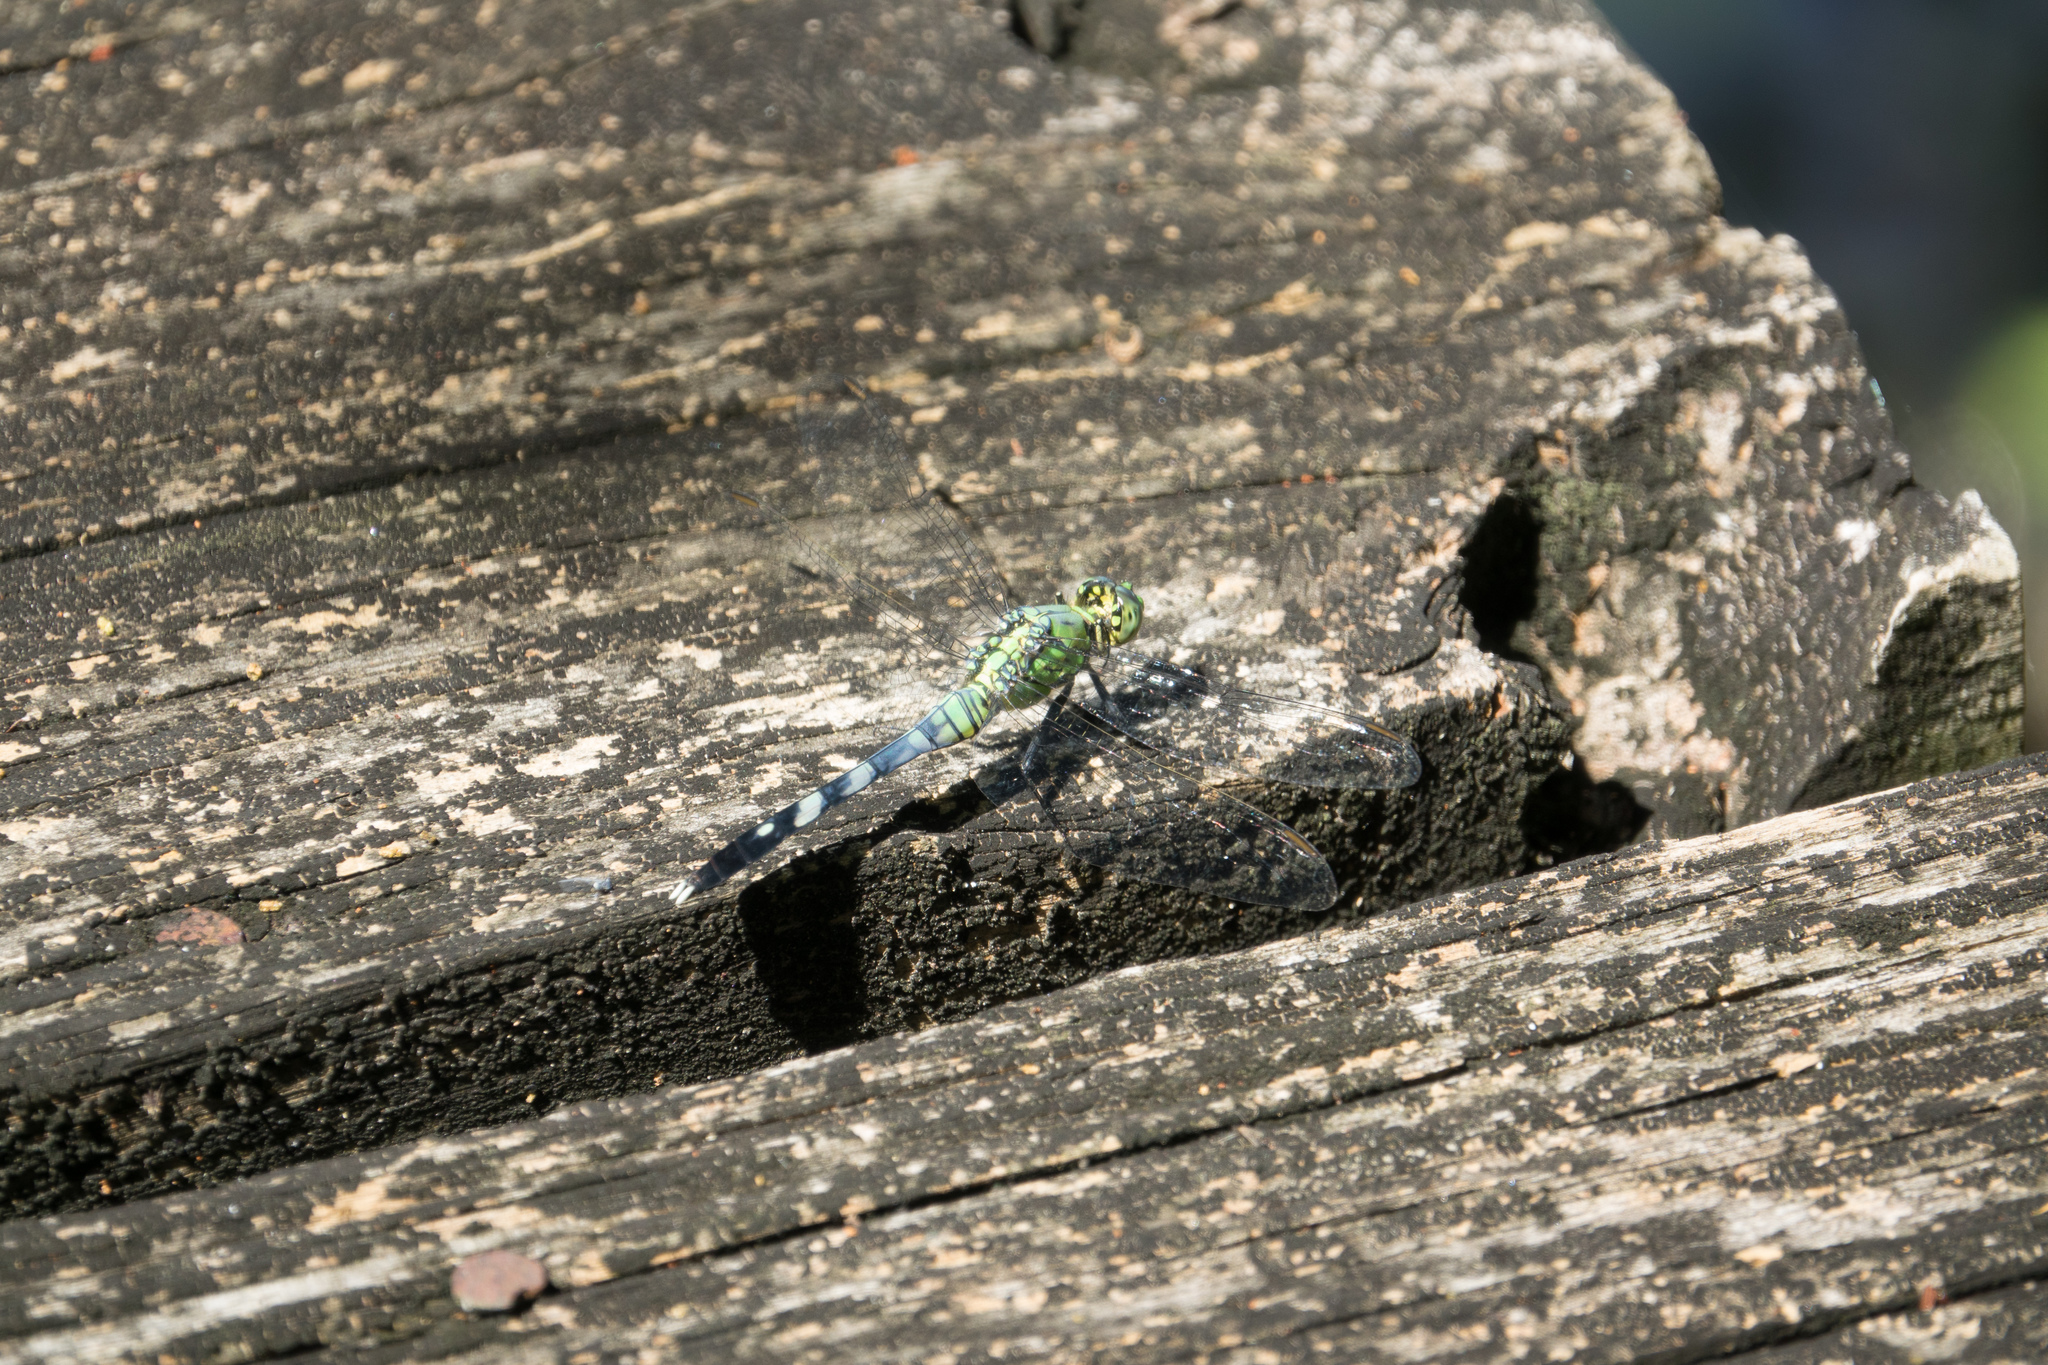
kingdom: Animalia
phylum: Arthropoda
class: Insecta
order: Odonata
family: Libellulidae
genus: Erythemis
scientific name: Erythemis simplicicollis
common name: Eastern pondhawk
